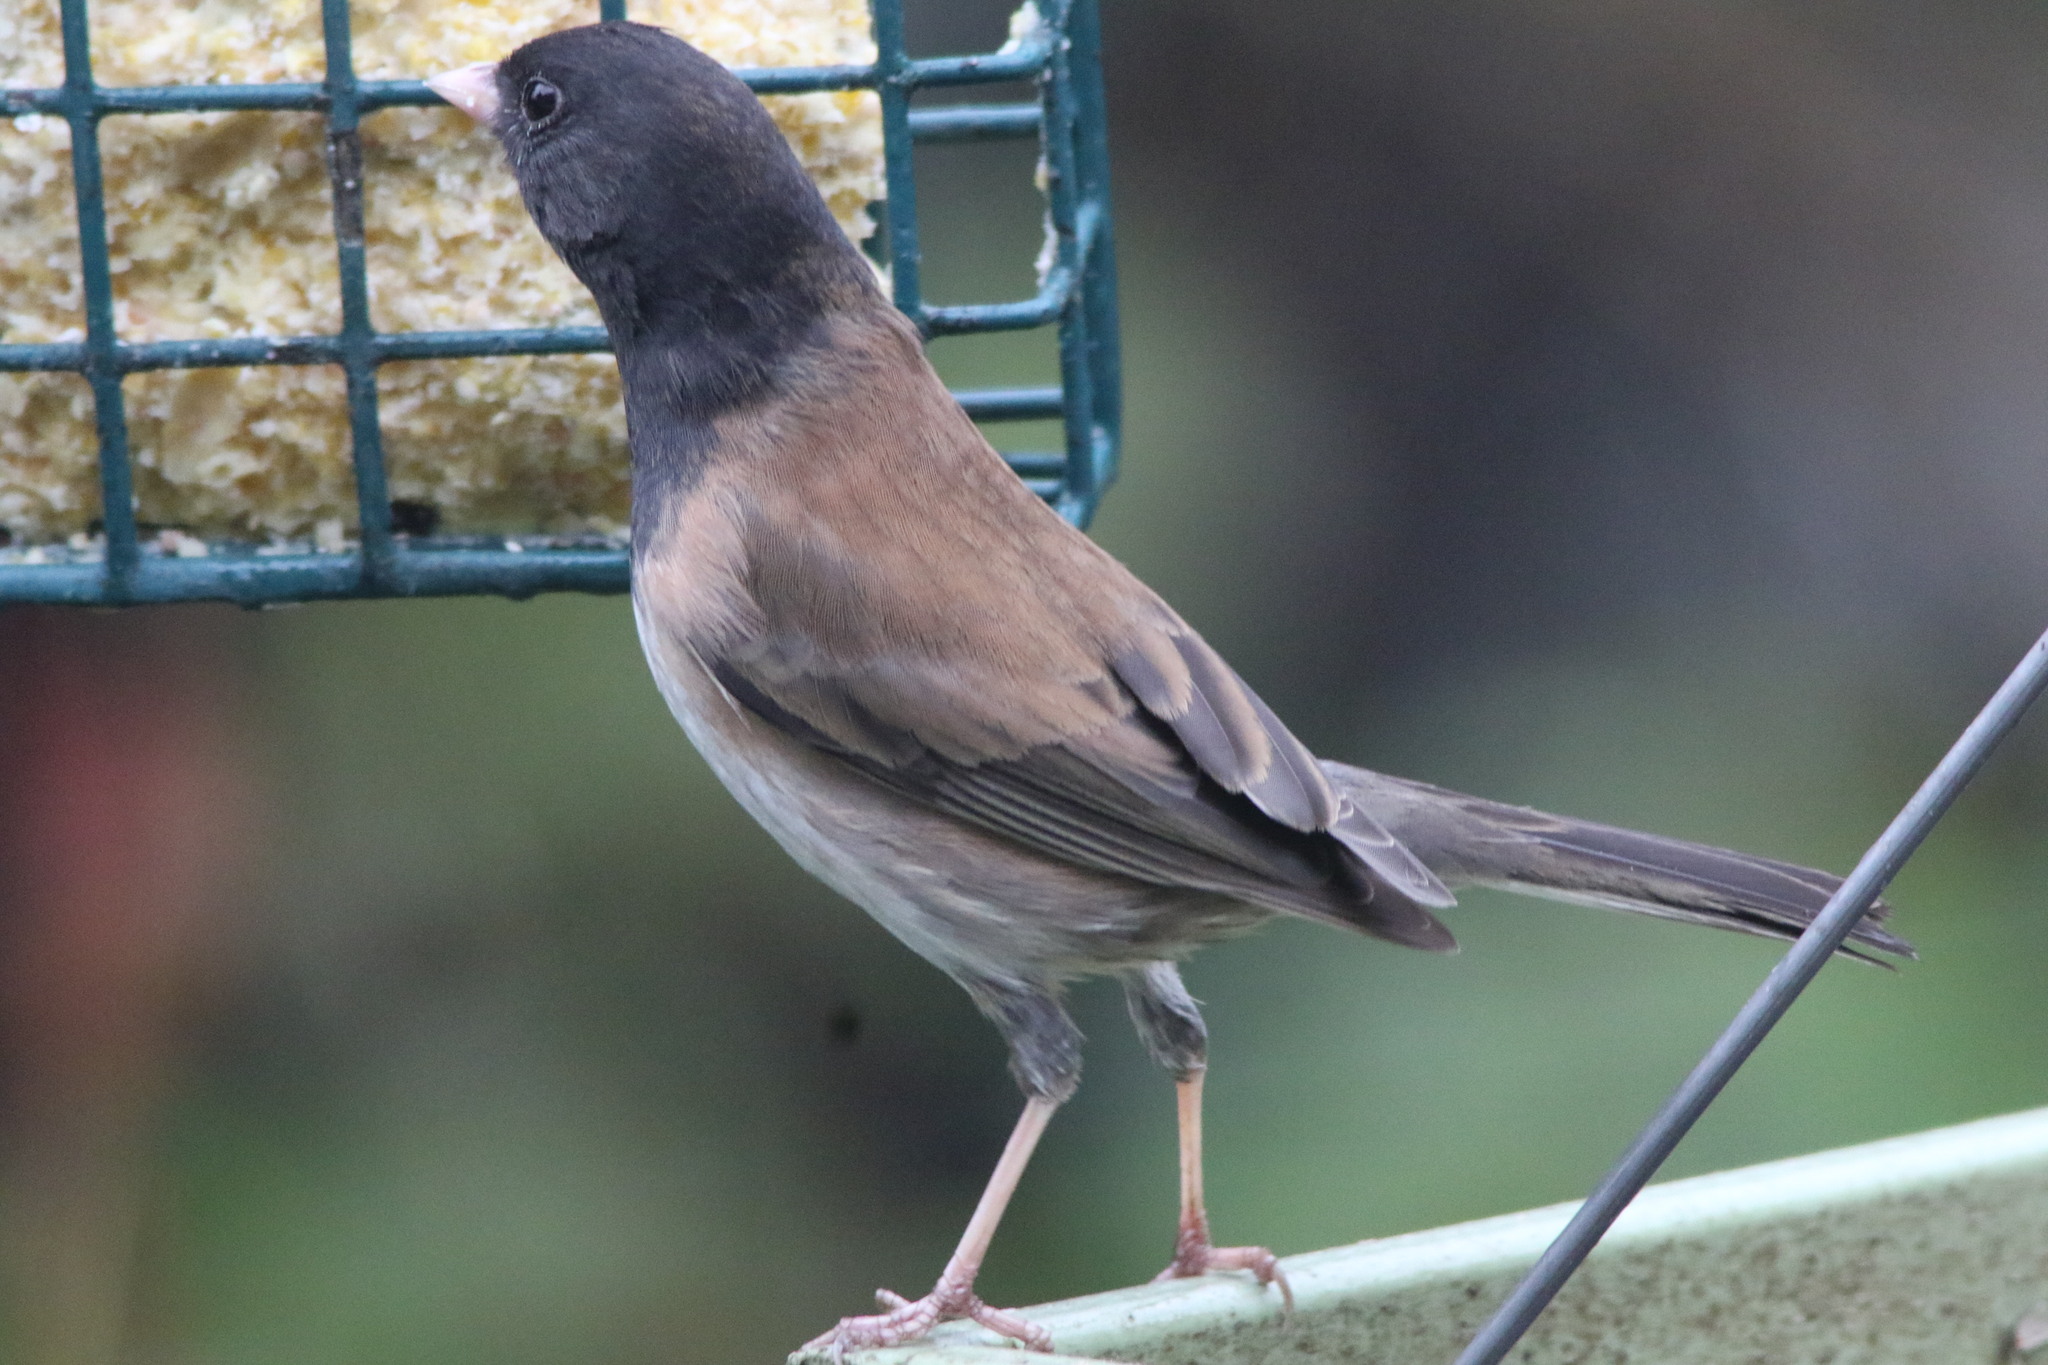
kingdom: Animalia
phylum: Chordata
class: Aves
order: Passeriformes
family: Passerellidae
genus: Junco
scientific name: Junco hyemalis
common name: Dark-eyed junco
